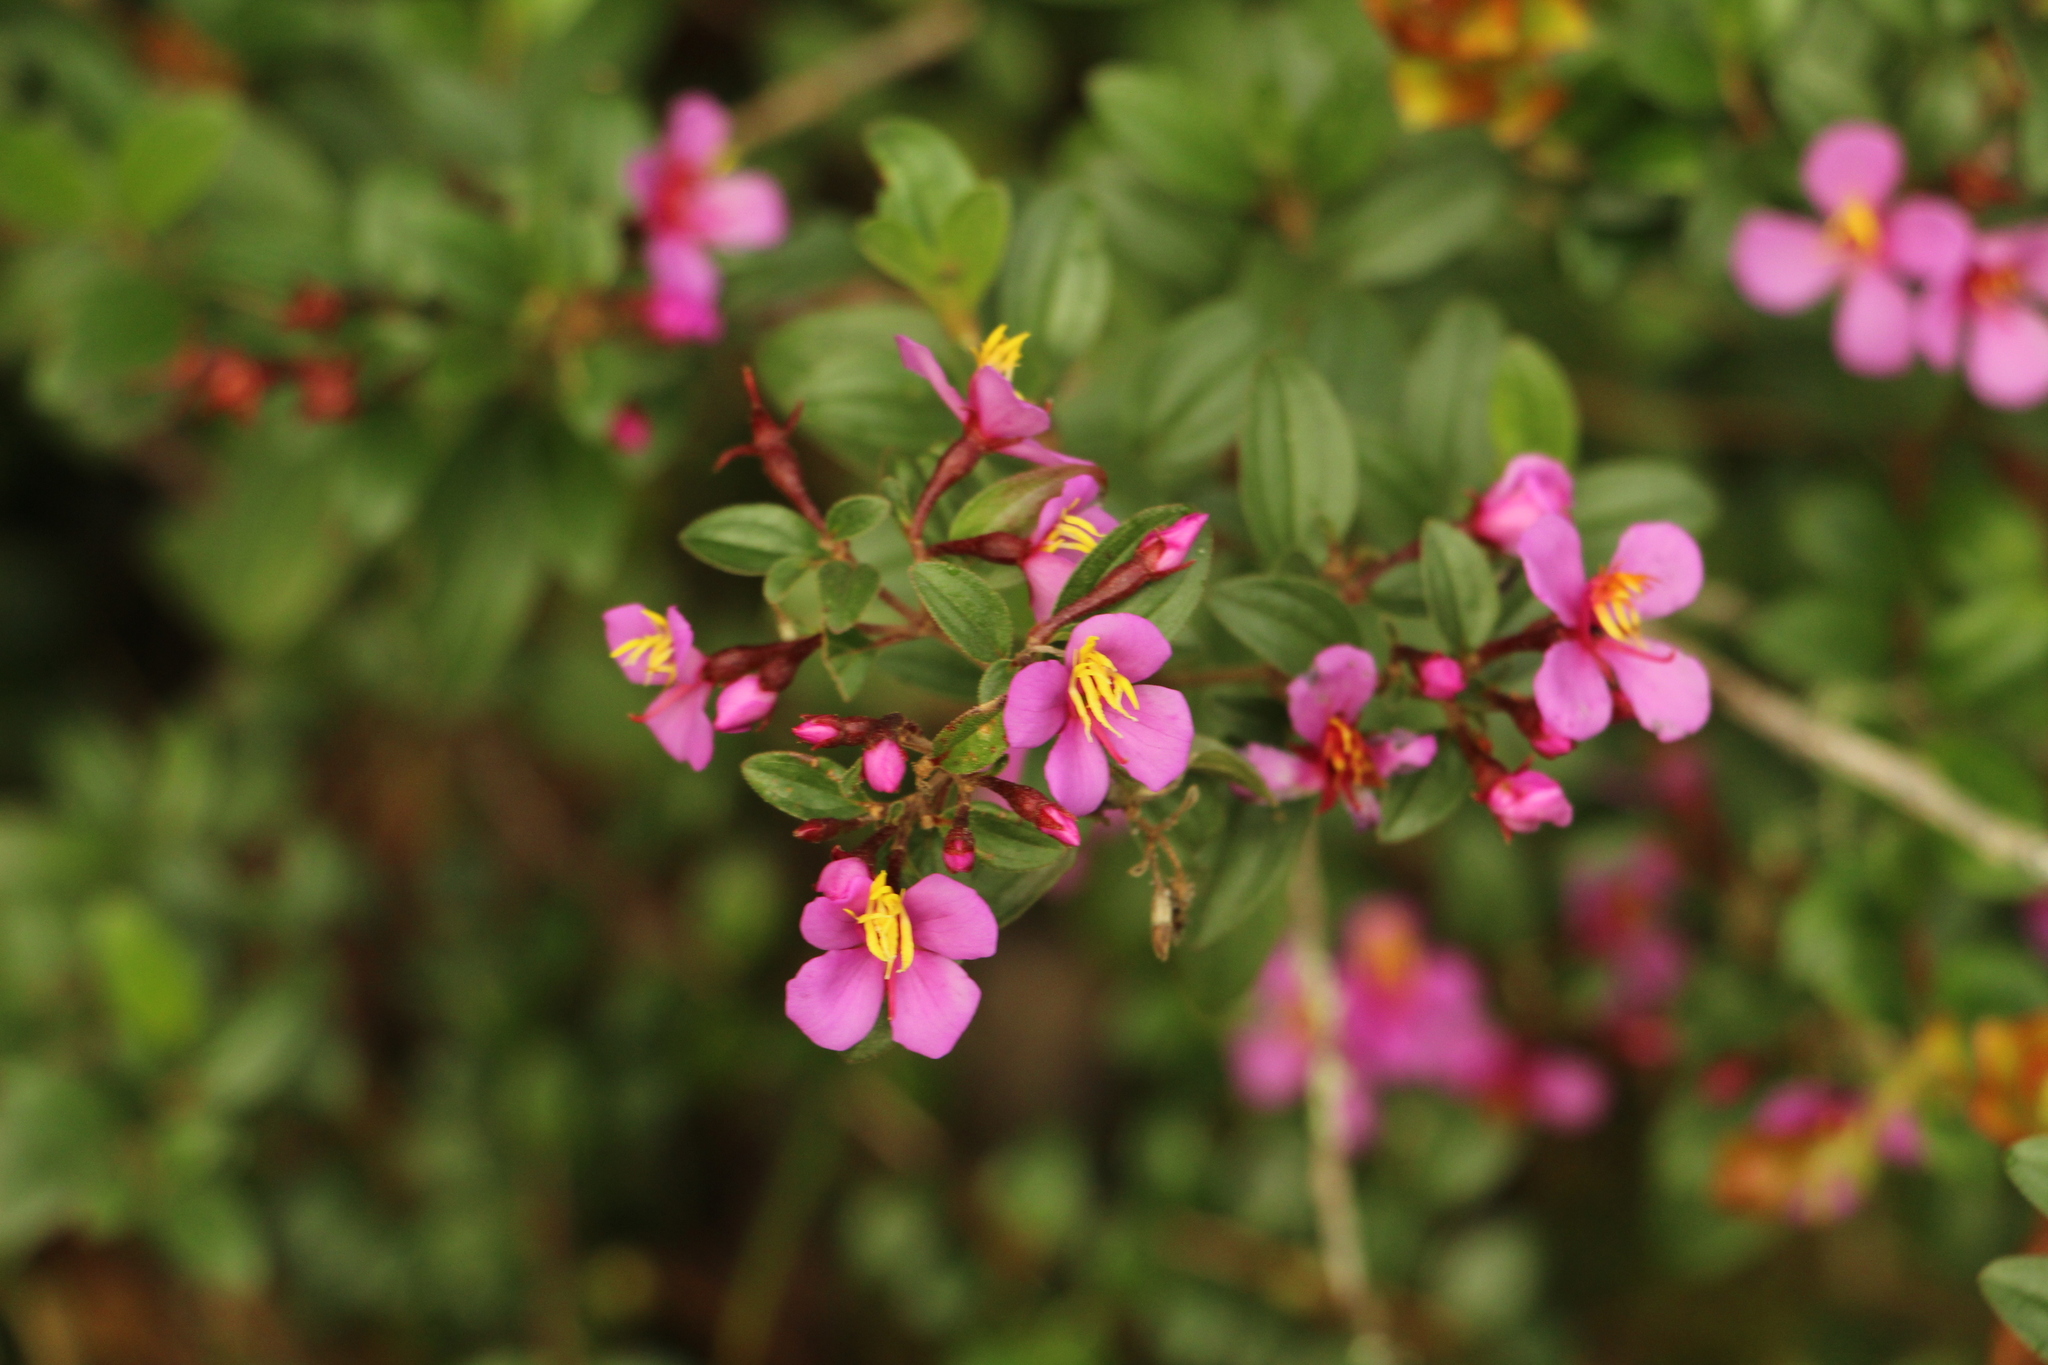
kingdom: Plantae
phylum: Tracheophyta
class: Magnoliopsida
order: Myrtales
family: Melastomataceae
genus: Monochaetum
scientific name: Monochaetum myrtoideum
